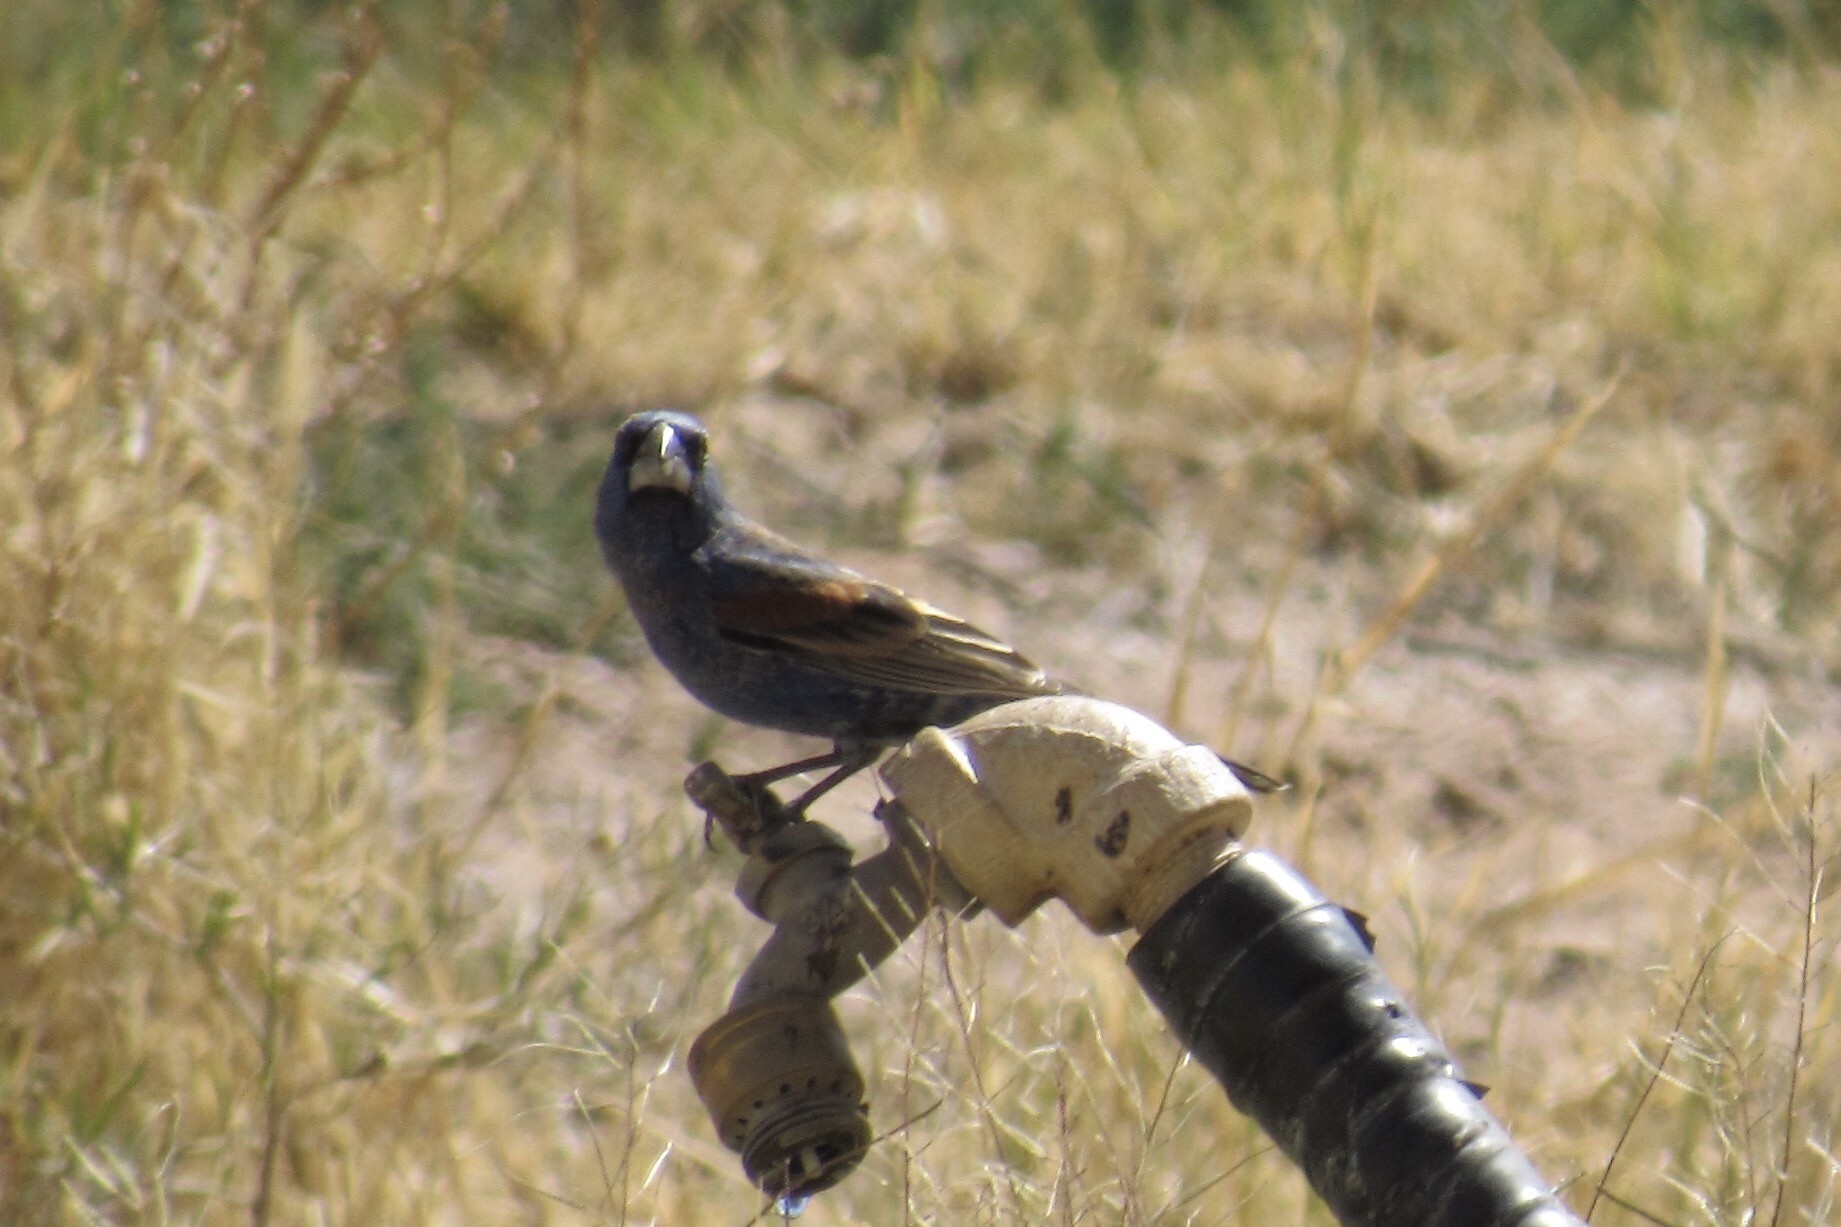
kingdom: Animalia
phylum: Chordata
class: Aves
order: Passeriformes
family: Cardinalidae
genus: Passerina
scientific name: Passerina caerulea
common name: Blue grosbeak
